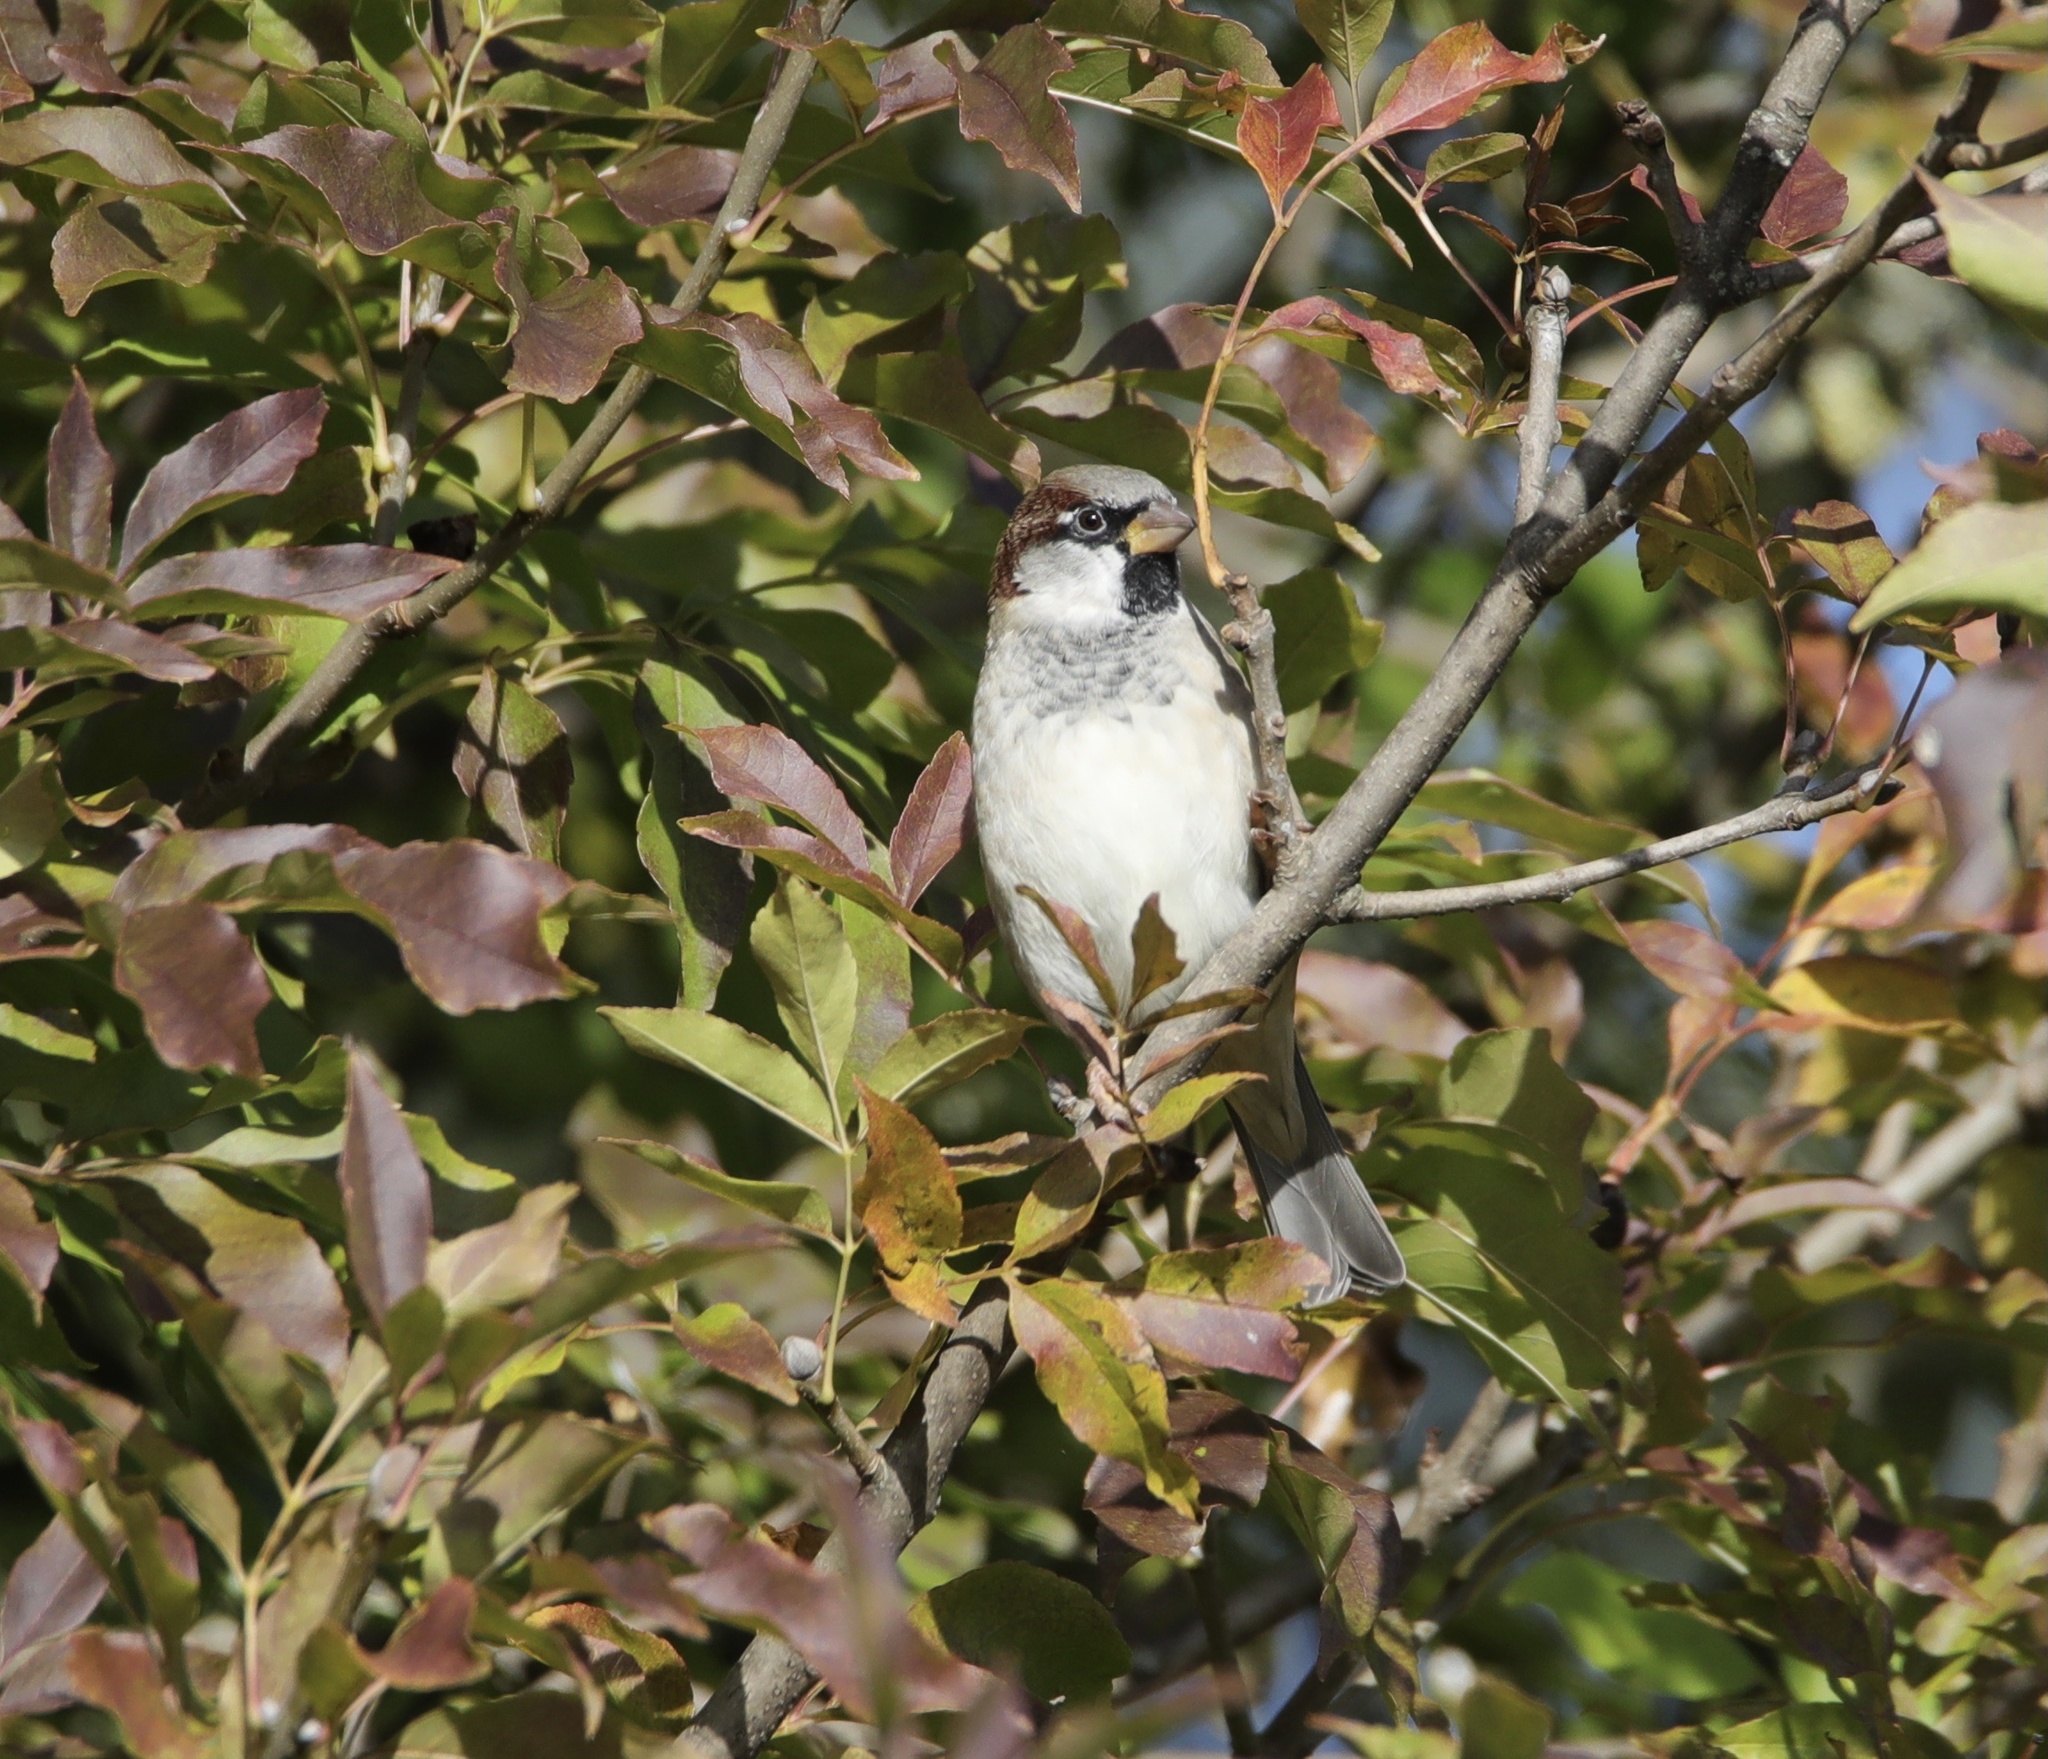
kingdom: Animalia
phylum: Chordata
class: Aves
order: Passeriformes
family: Passeridae
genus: Passer
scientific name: Passer domesticus
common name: House sparrow
